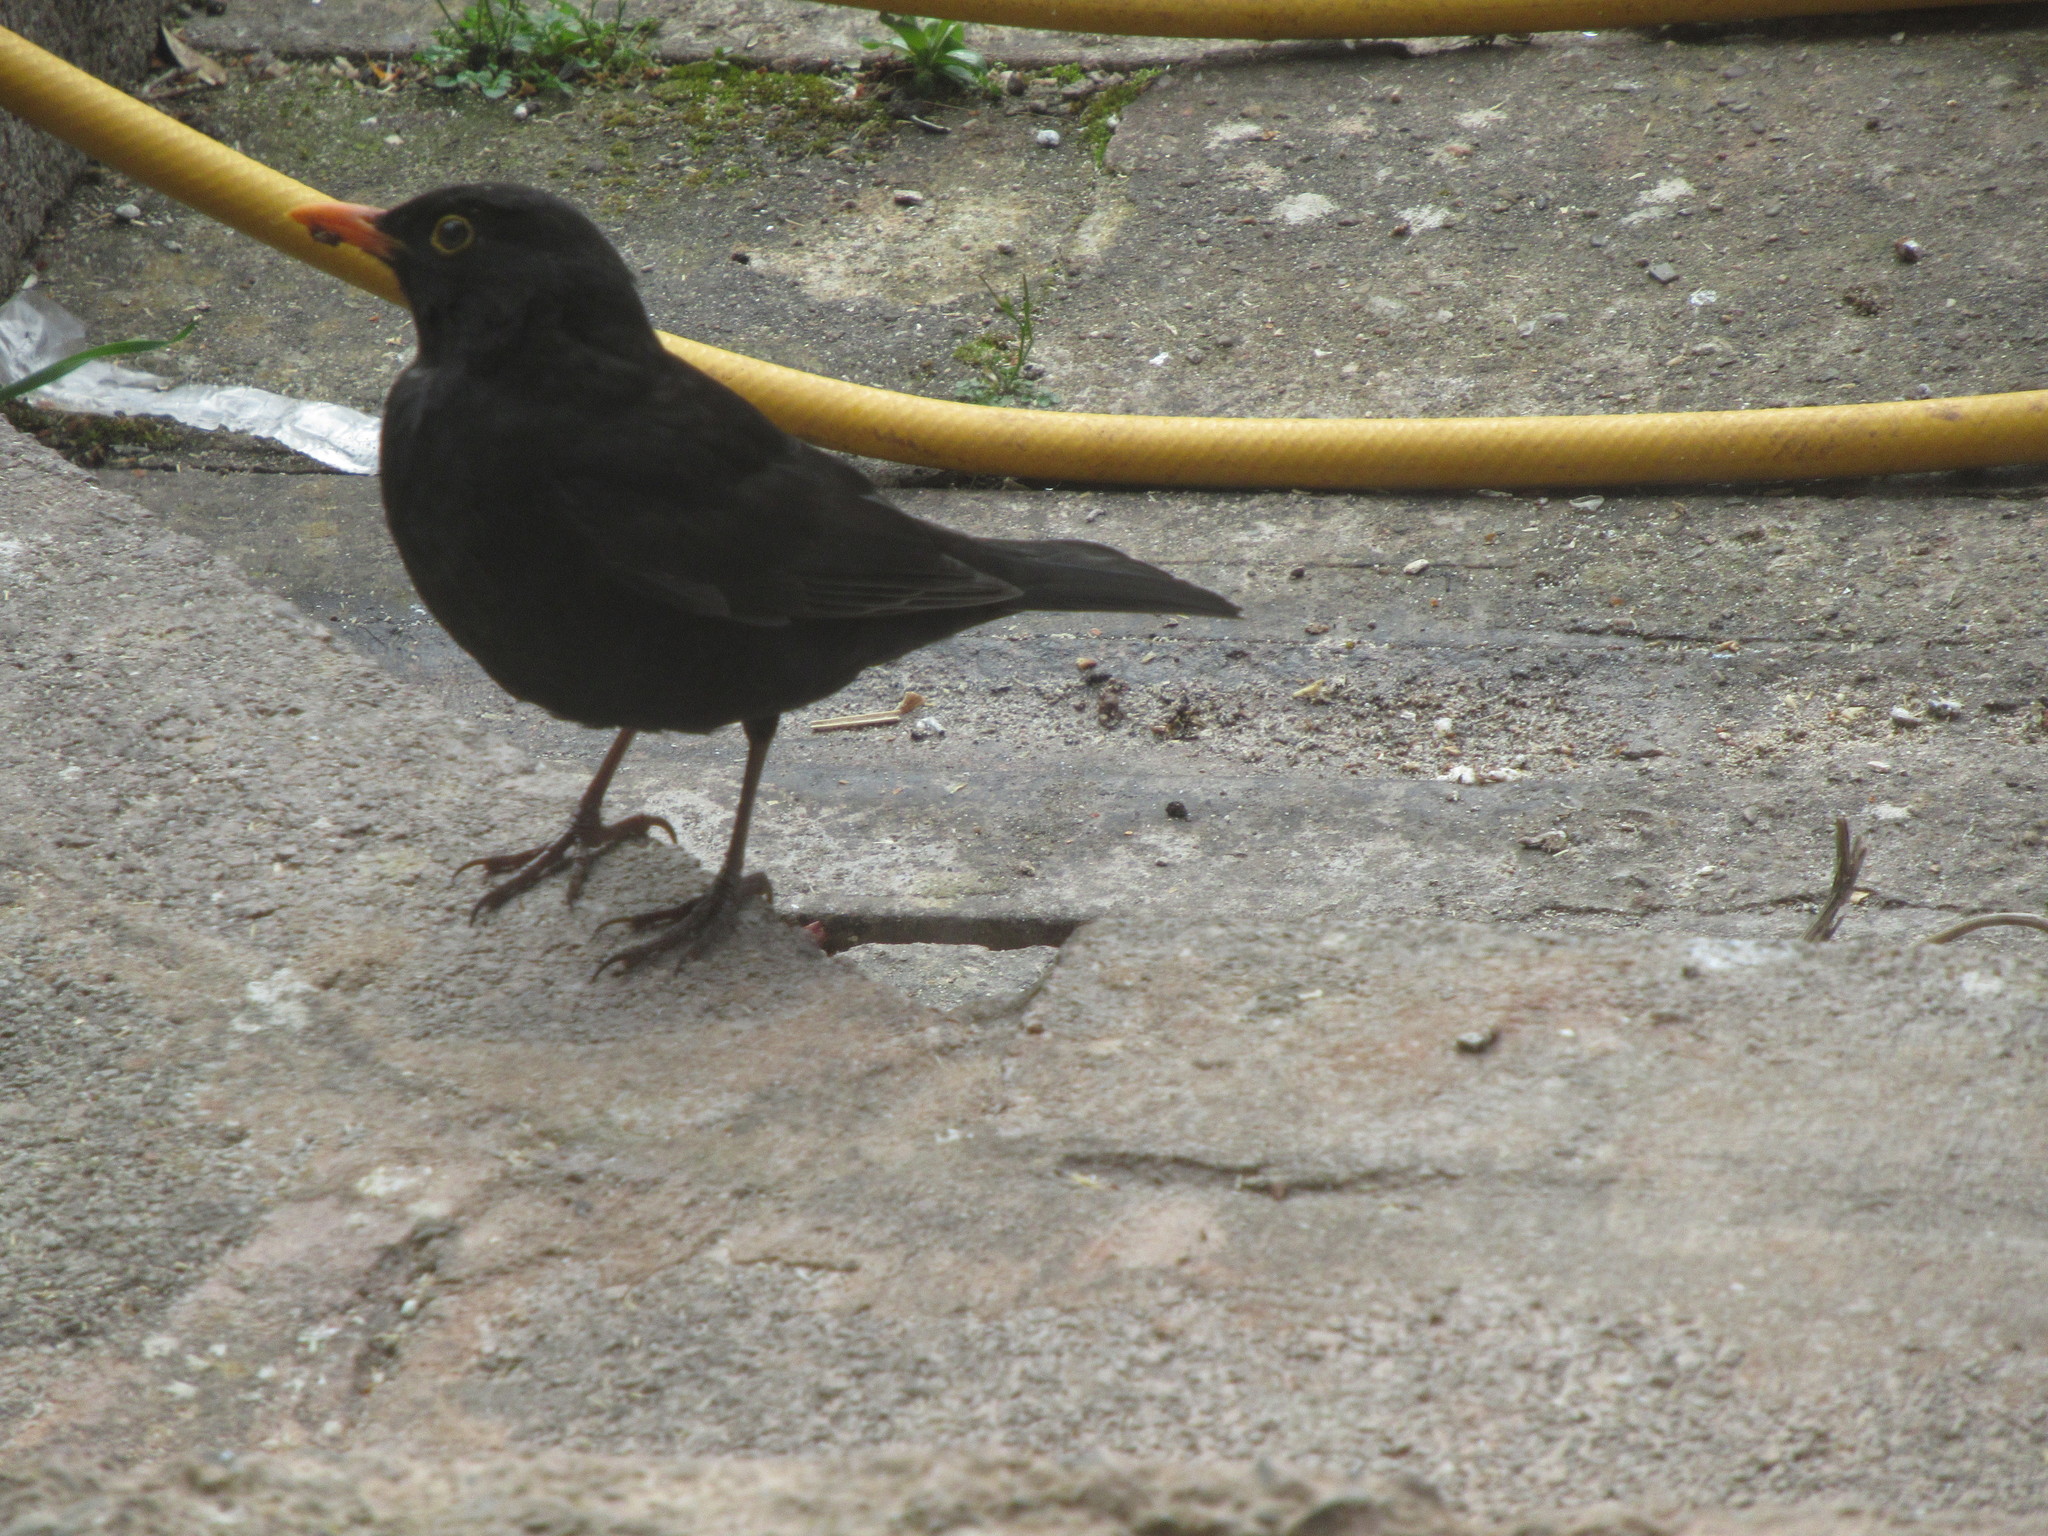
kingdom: Animalia
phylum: Chordata
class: Aves
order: Passeriformes
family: Turdidae
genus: Turdus
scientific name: Turdus merula
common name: Common blackbird
